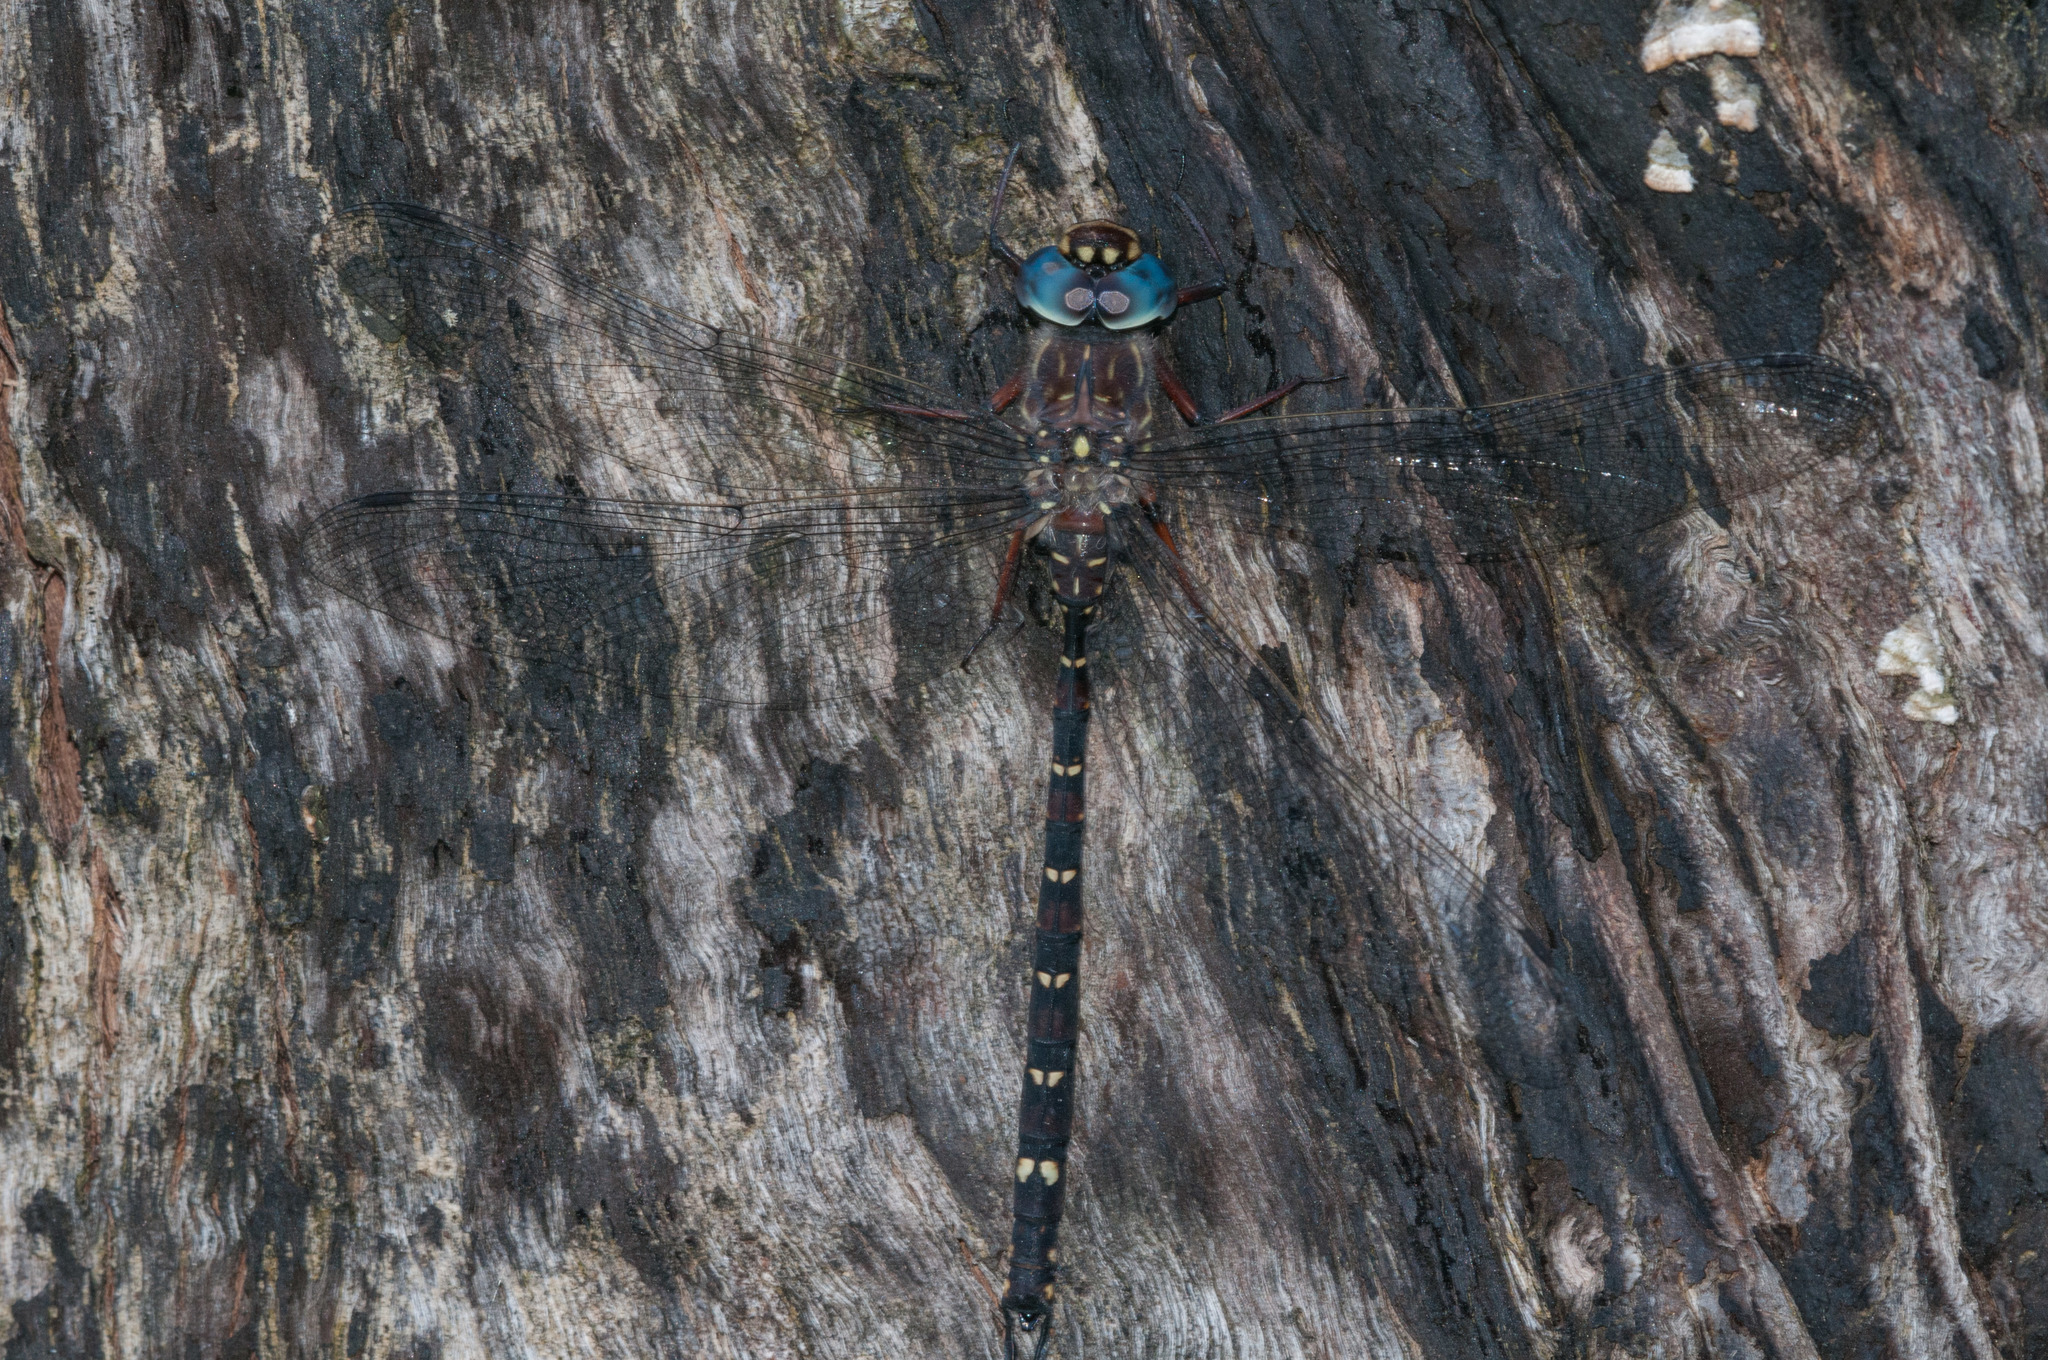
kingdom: Animalia
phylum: Arthropoda
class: Insecta
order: Odonata
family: Aeshnidae
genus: Austroaeschna
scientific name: Austroaeschna multipunctata
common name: Multi-spotted darner
